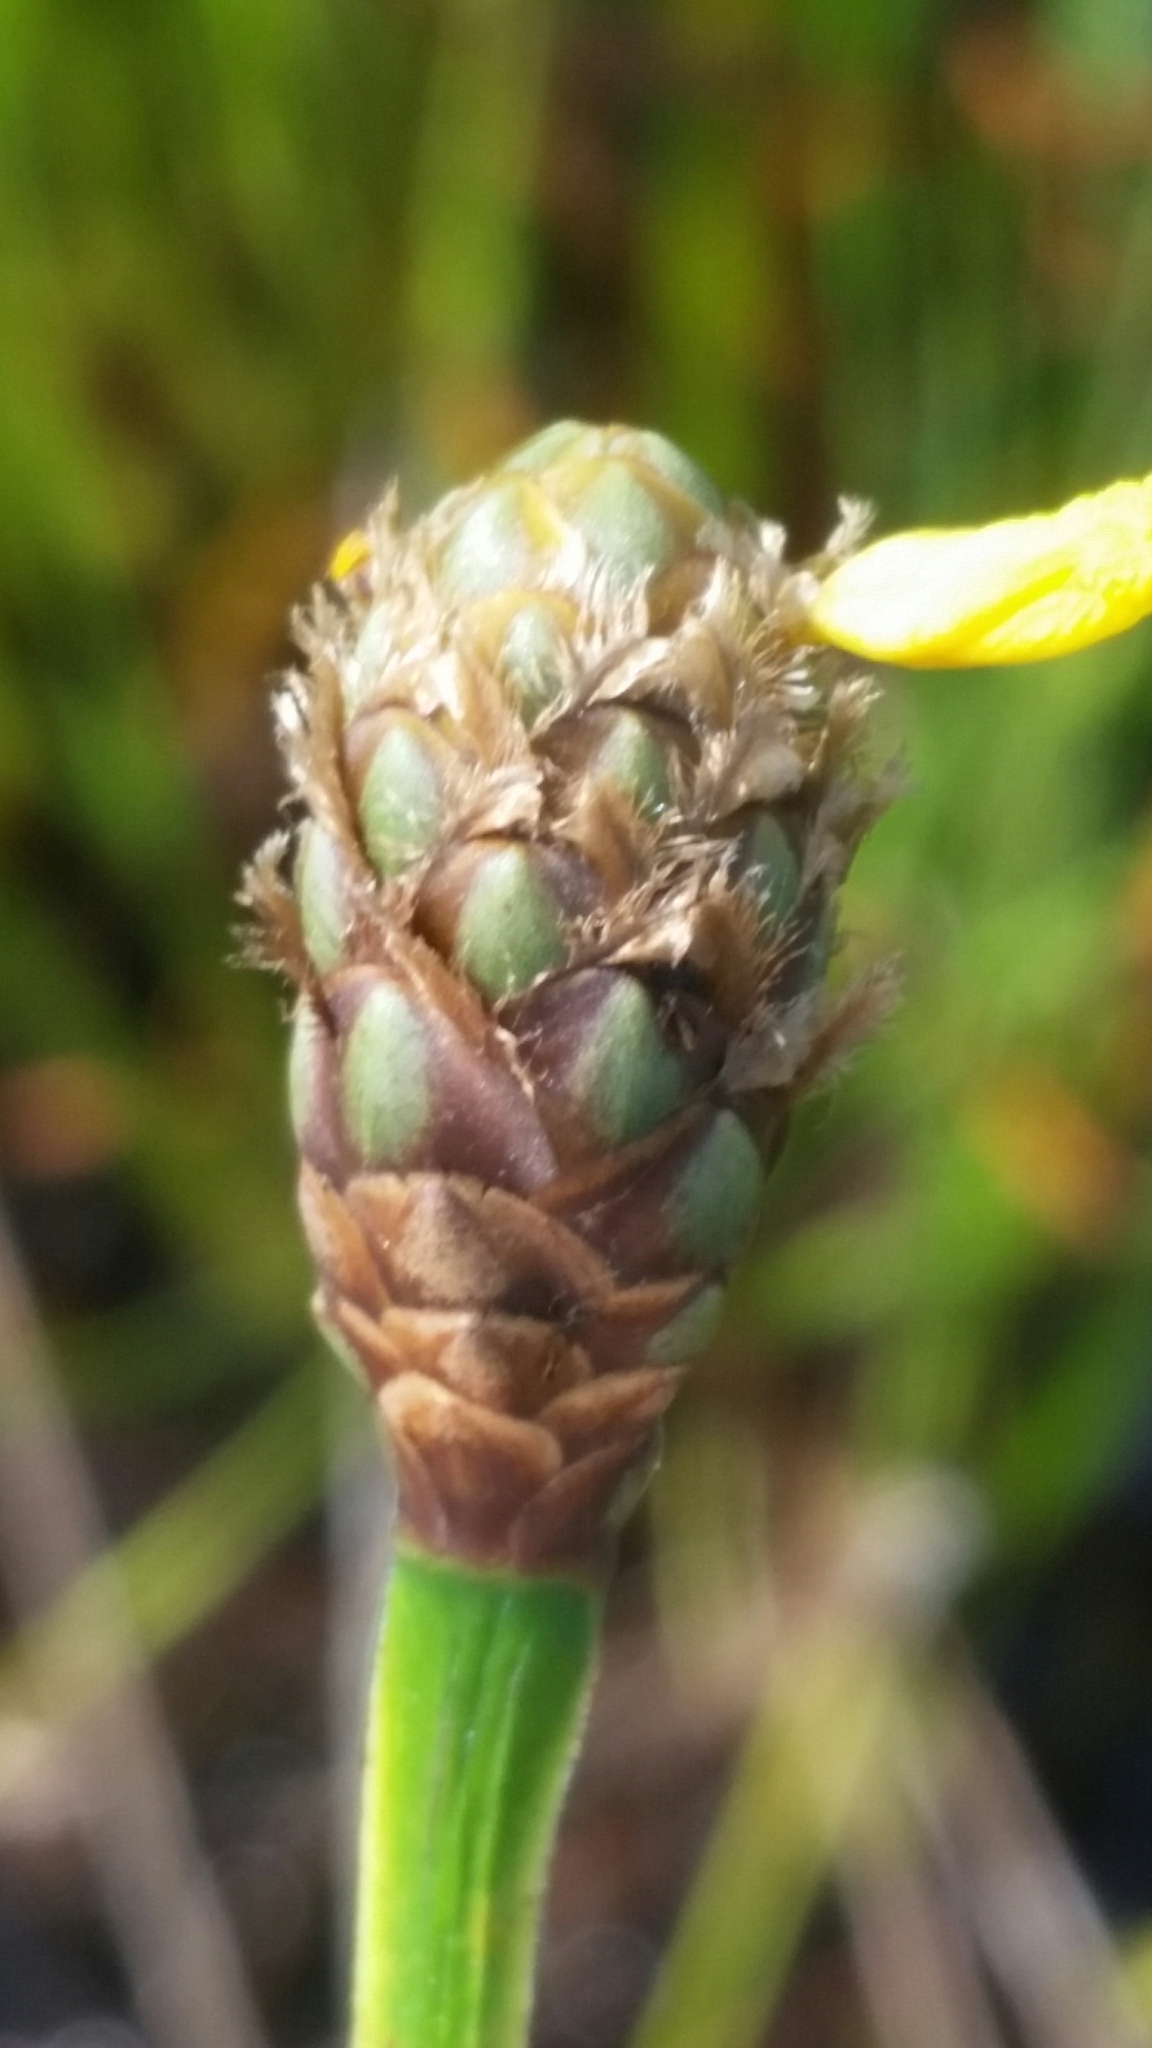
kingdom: Plantae
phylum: Tracheophyta
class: Liliopsida
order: Poales
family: Xyridaceae
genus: Xyris
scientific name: Xyris fimbriata
